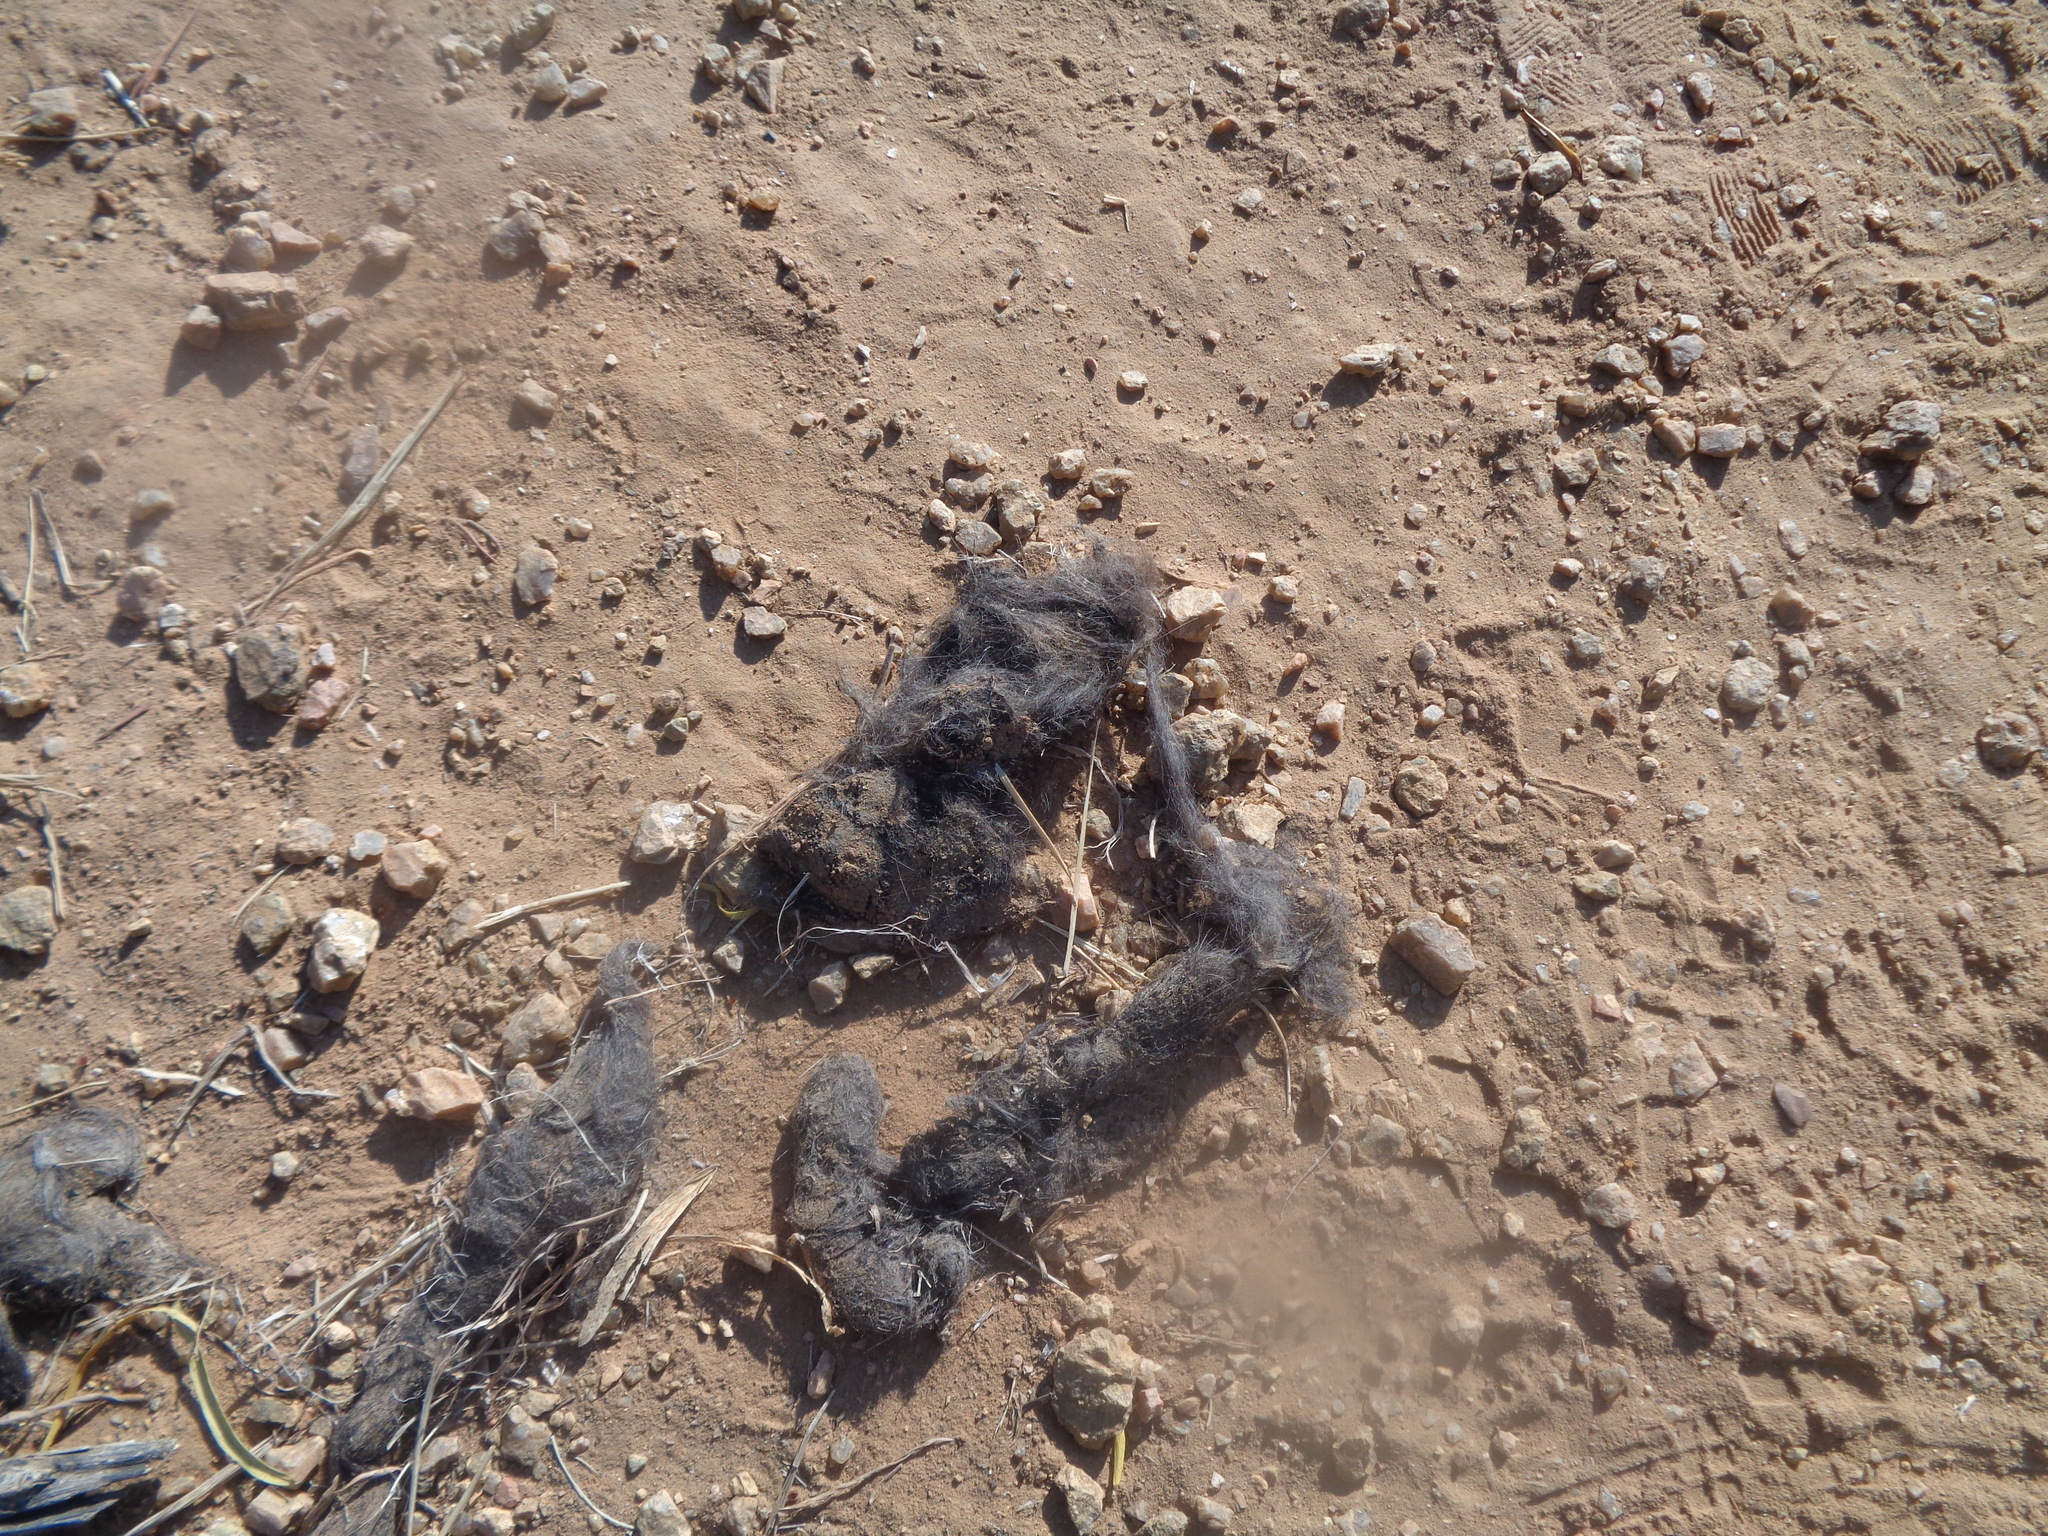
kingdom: Animalia
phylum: Chordata
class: Mammalia
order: Carnivora
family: Canidae
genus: Canis
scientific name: Canis latrans
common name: Coyote
